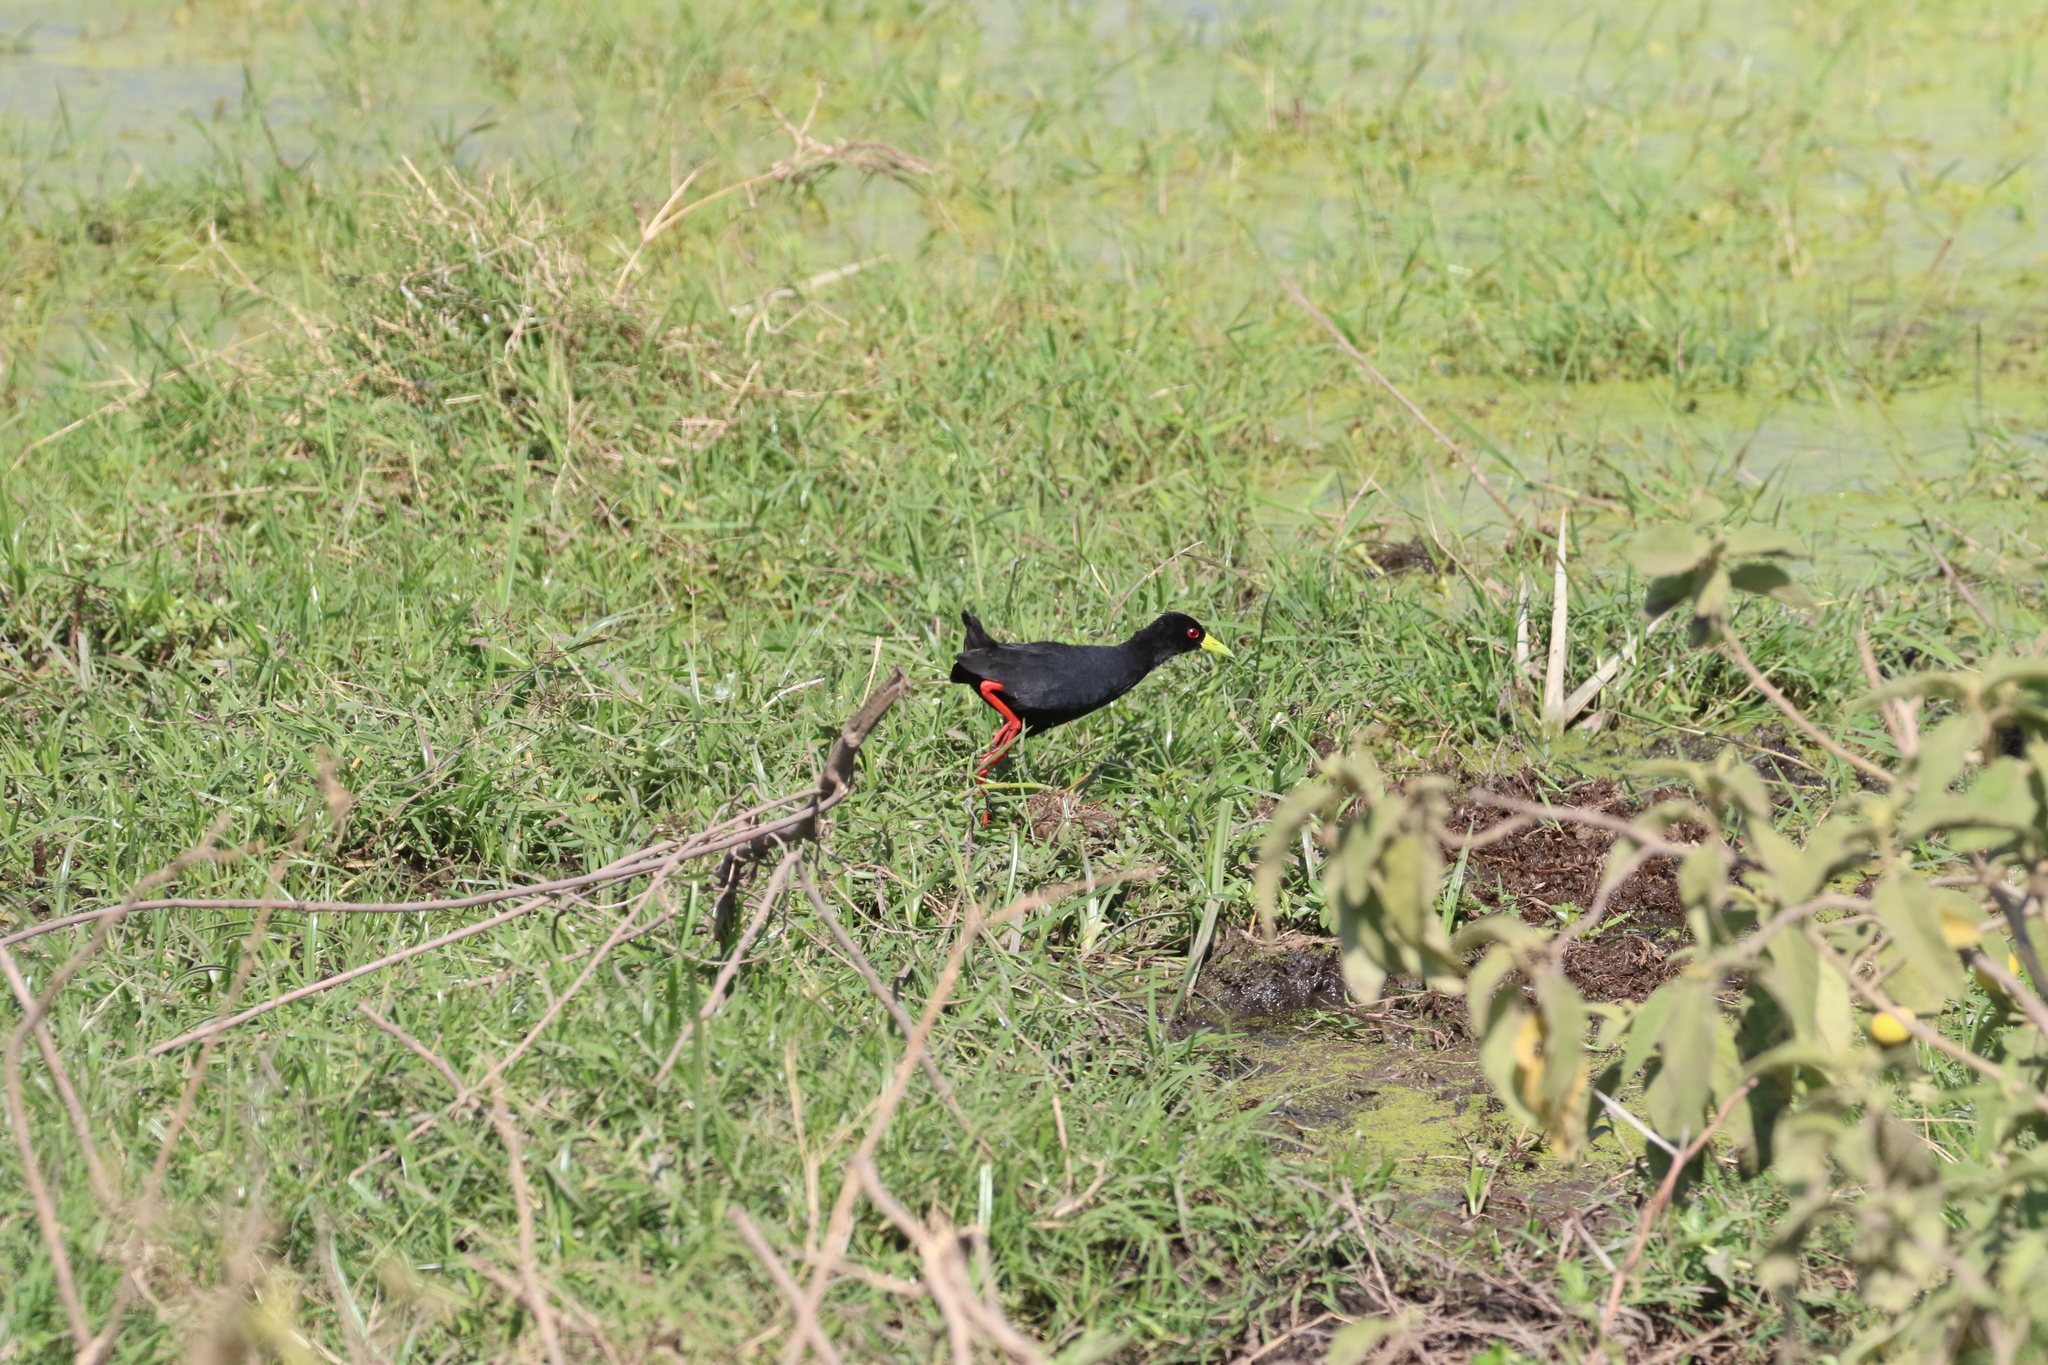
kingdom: Animalia
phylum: Chordata
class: Aves
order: Gruiformes
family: Rallidae
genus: Amaurornis
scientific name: Amaurornis flavirostra
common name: Black crake
